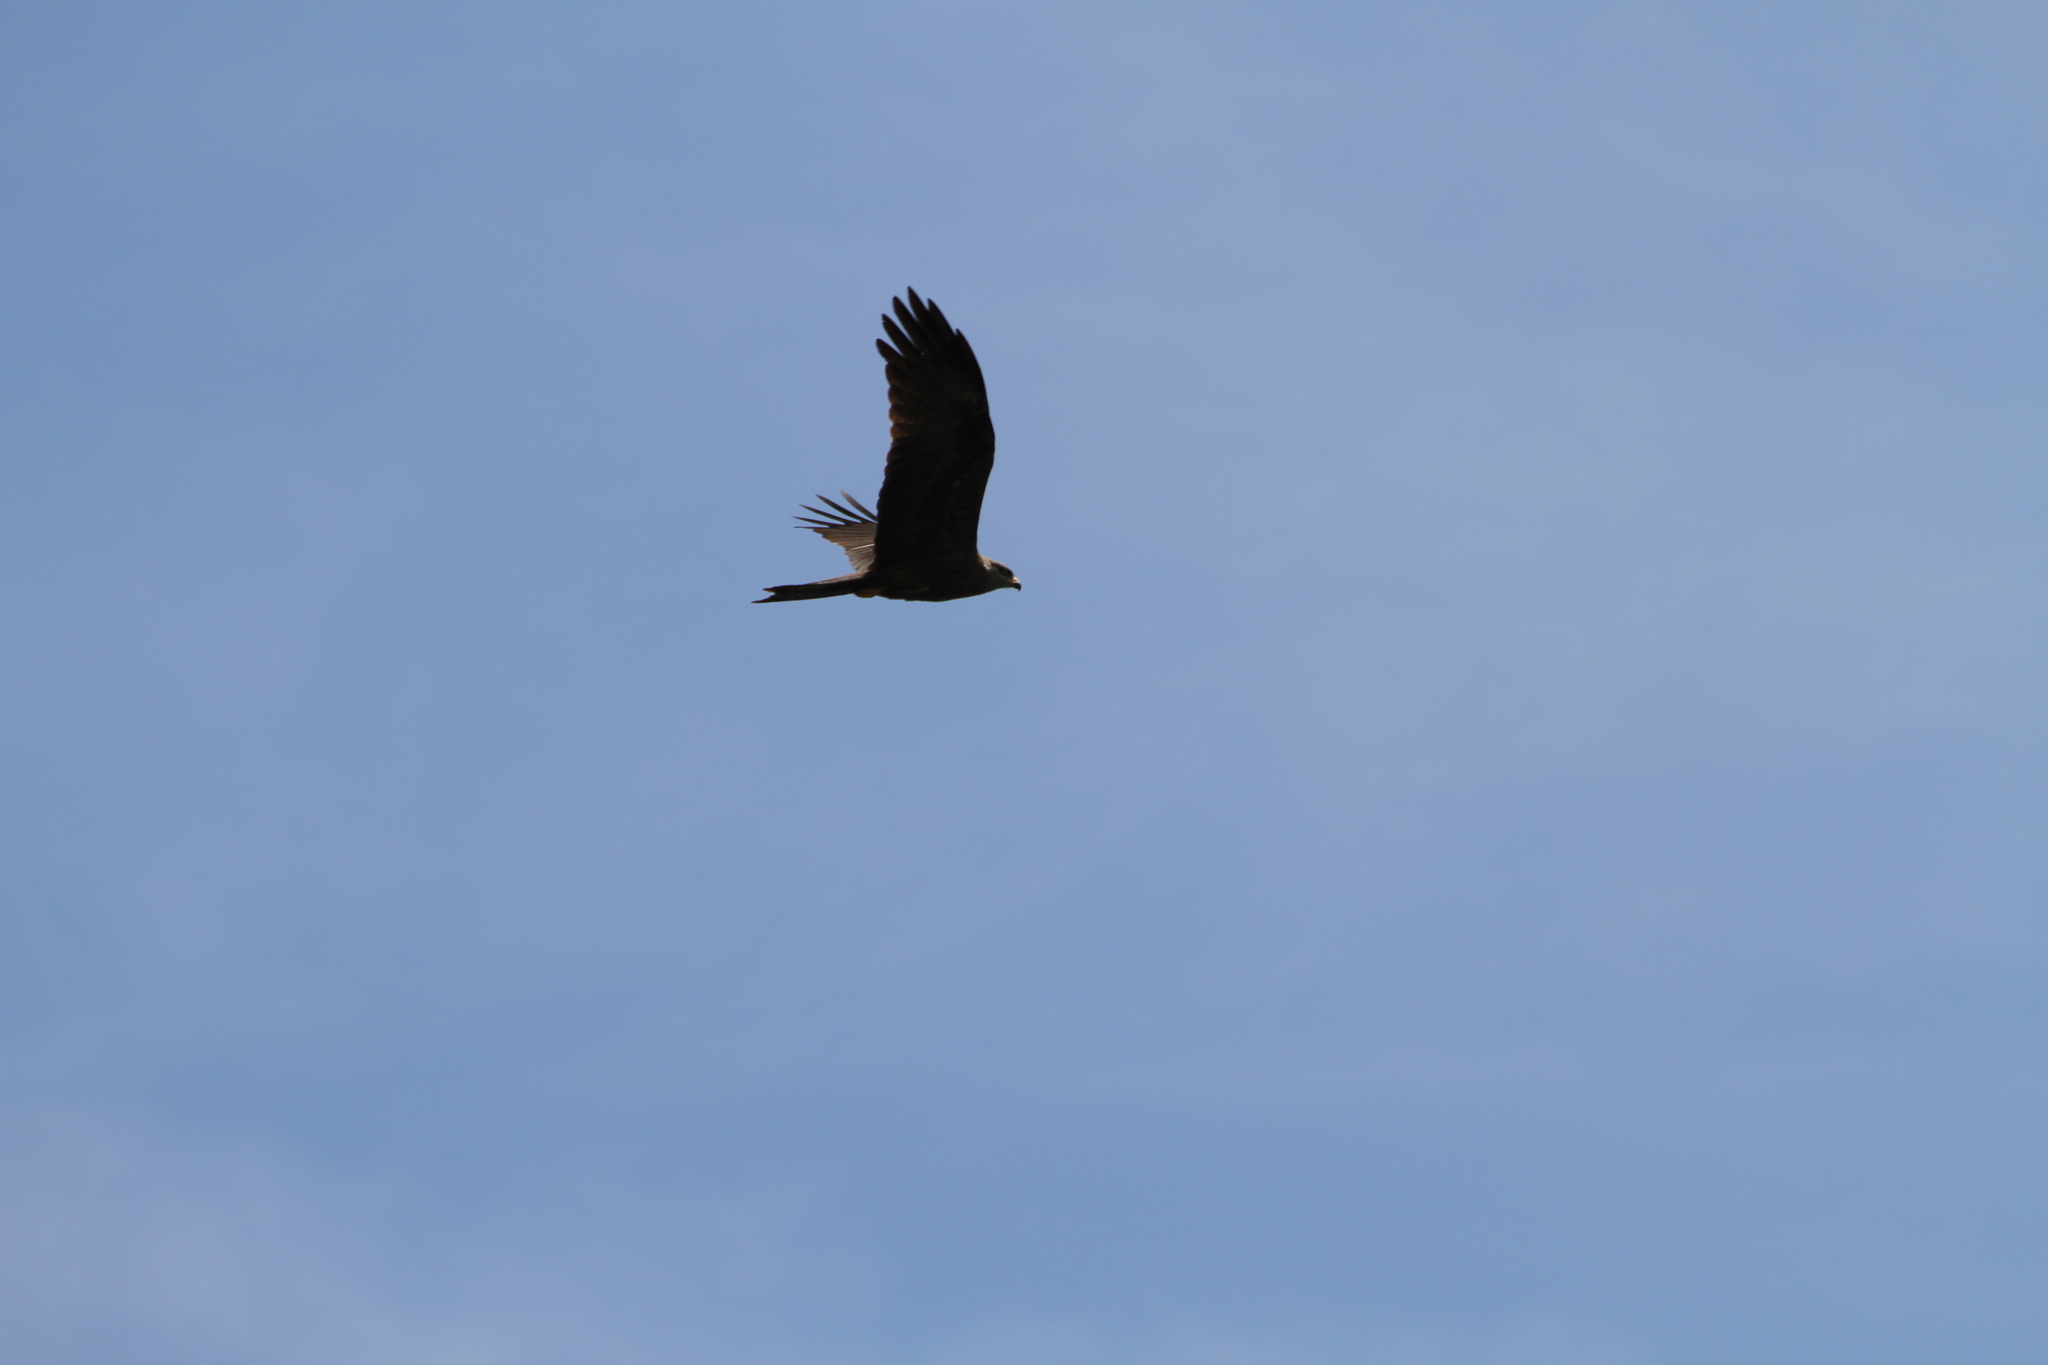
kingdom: Animalia
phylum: Chordata
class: Aves
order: Accipitriformes
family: Accipitridae
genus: Milvus
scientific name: Milvus migrans
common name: Black kite
